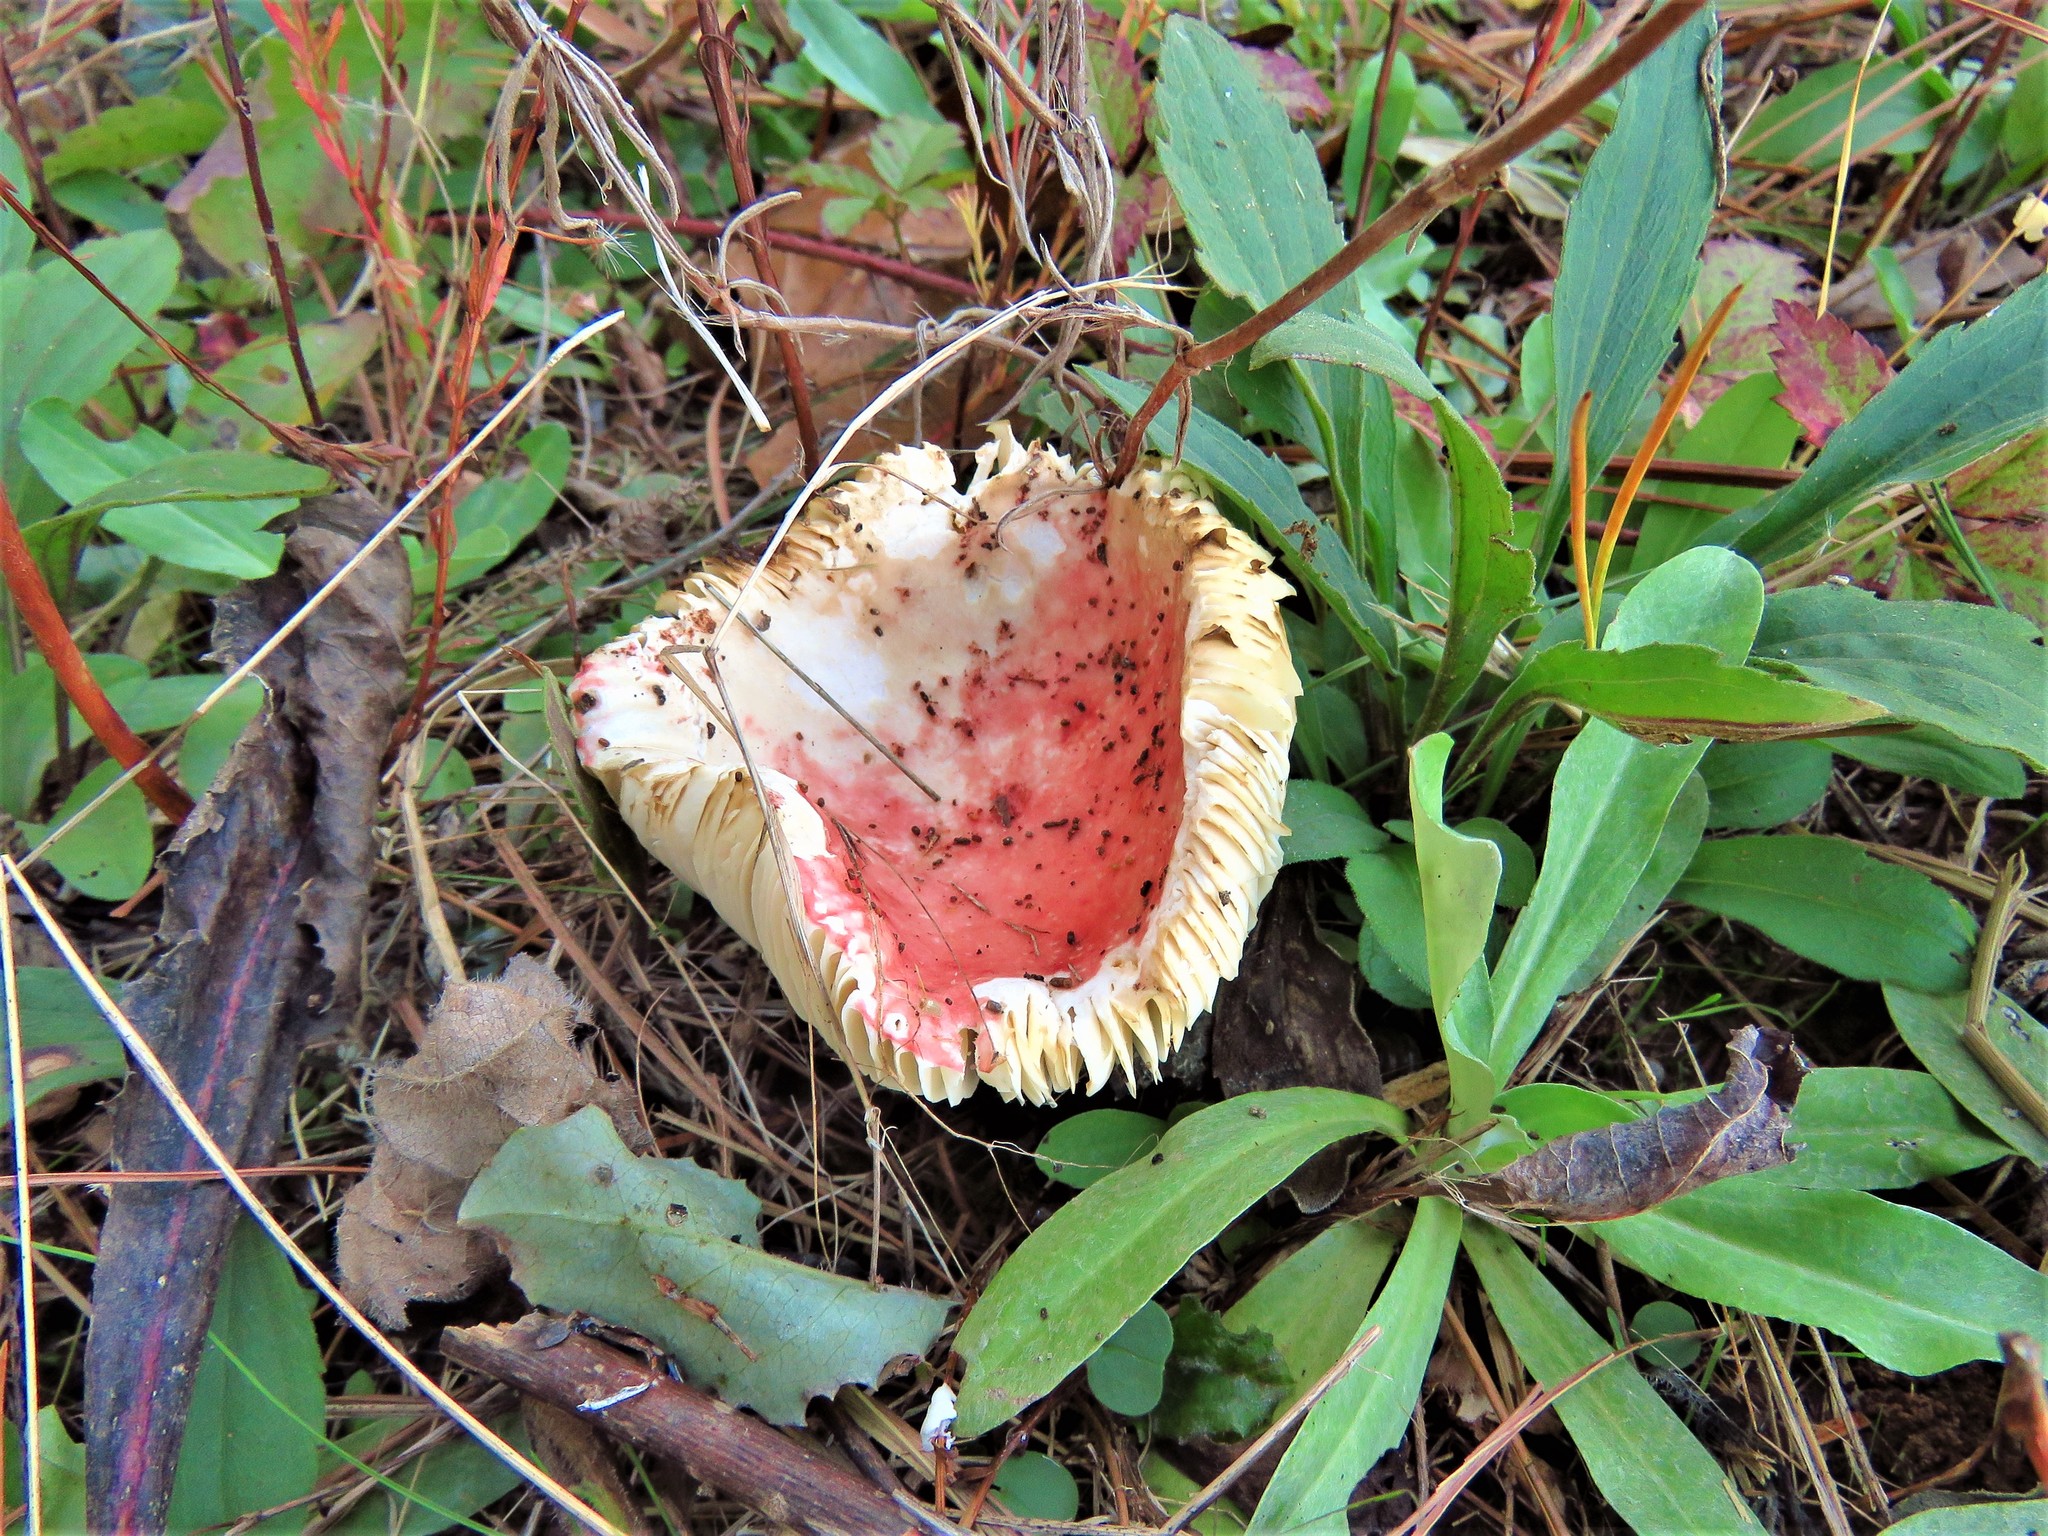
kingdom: Fungi
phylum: Basidiomycota
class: Agaricomycetes
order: Russulales
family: Russulaceae
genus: Russula
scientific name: Russula
